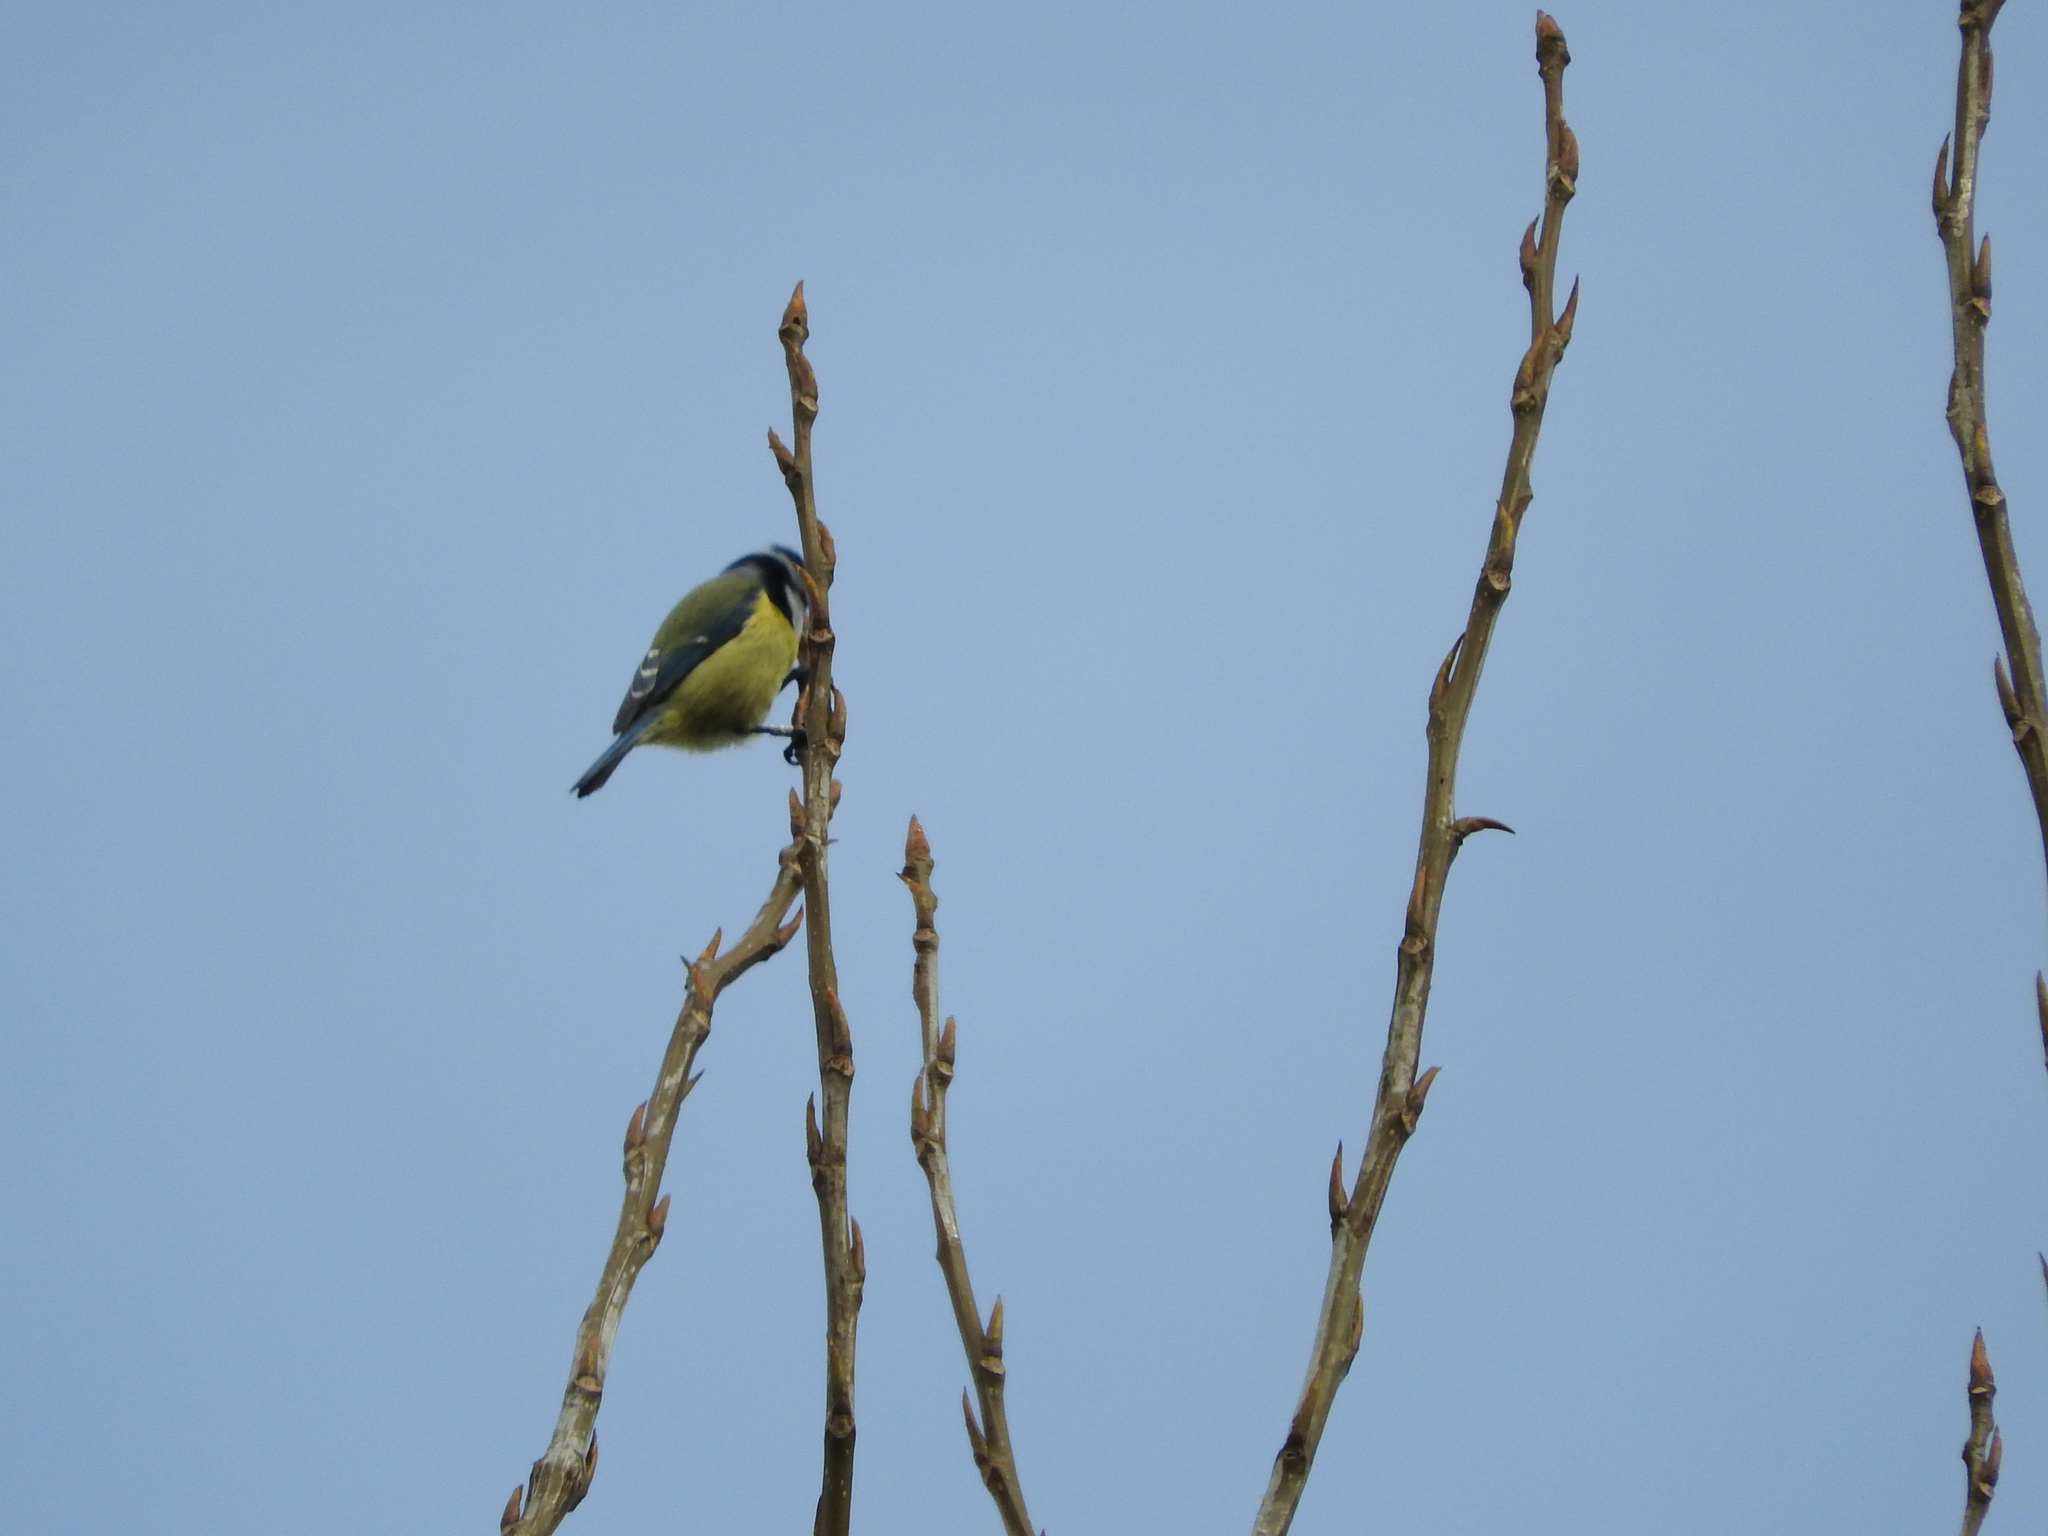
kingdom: Animalia
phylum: Chordata
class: Aves
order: Passeriformes
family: Paridae
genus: Cyanistes
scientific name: Cyanistes caeruleus
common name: Eurasian blue tit
